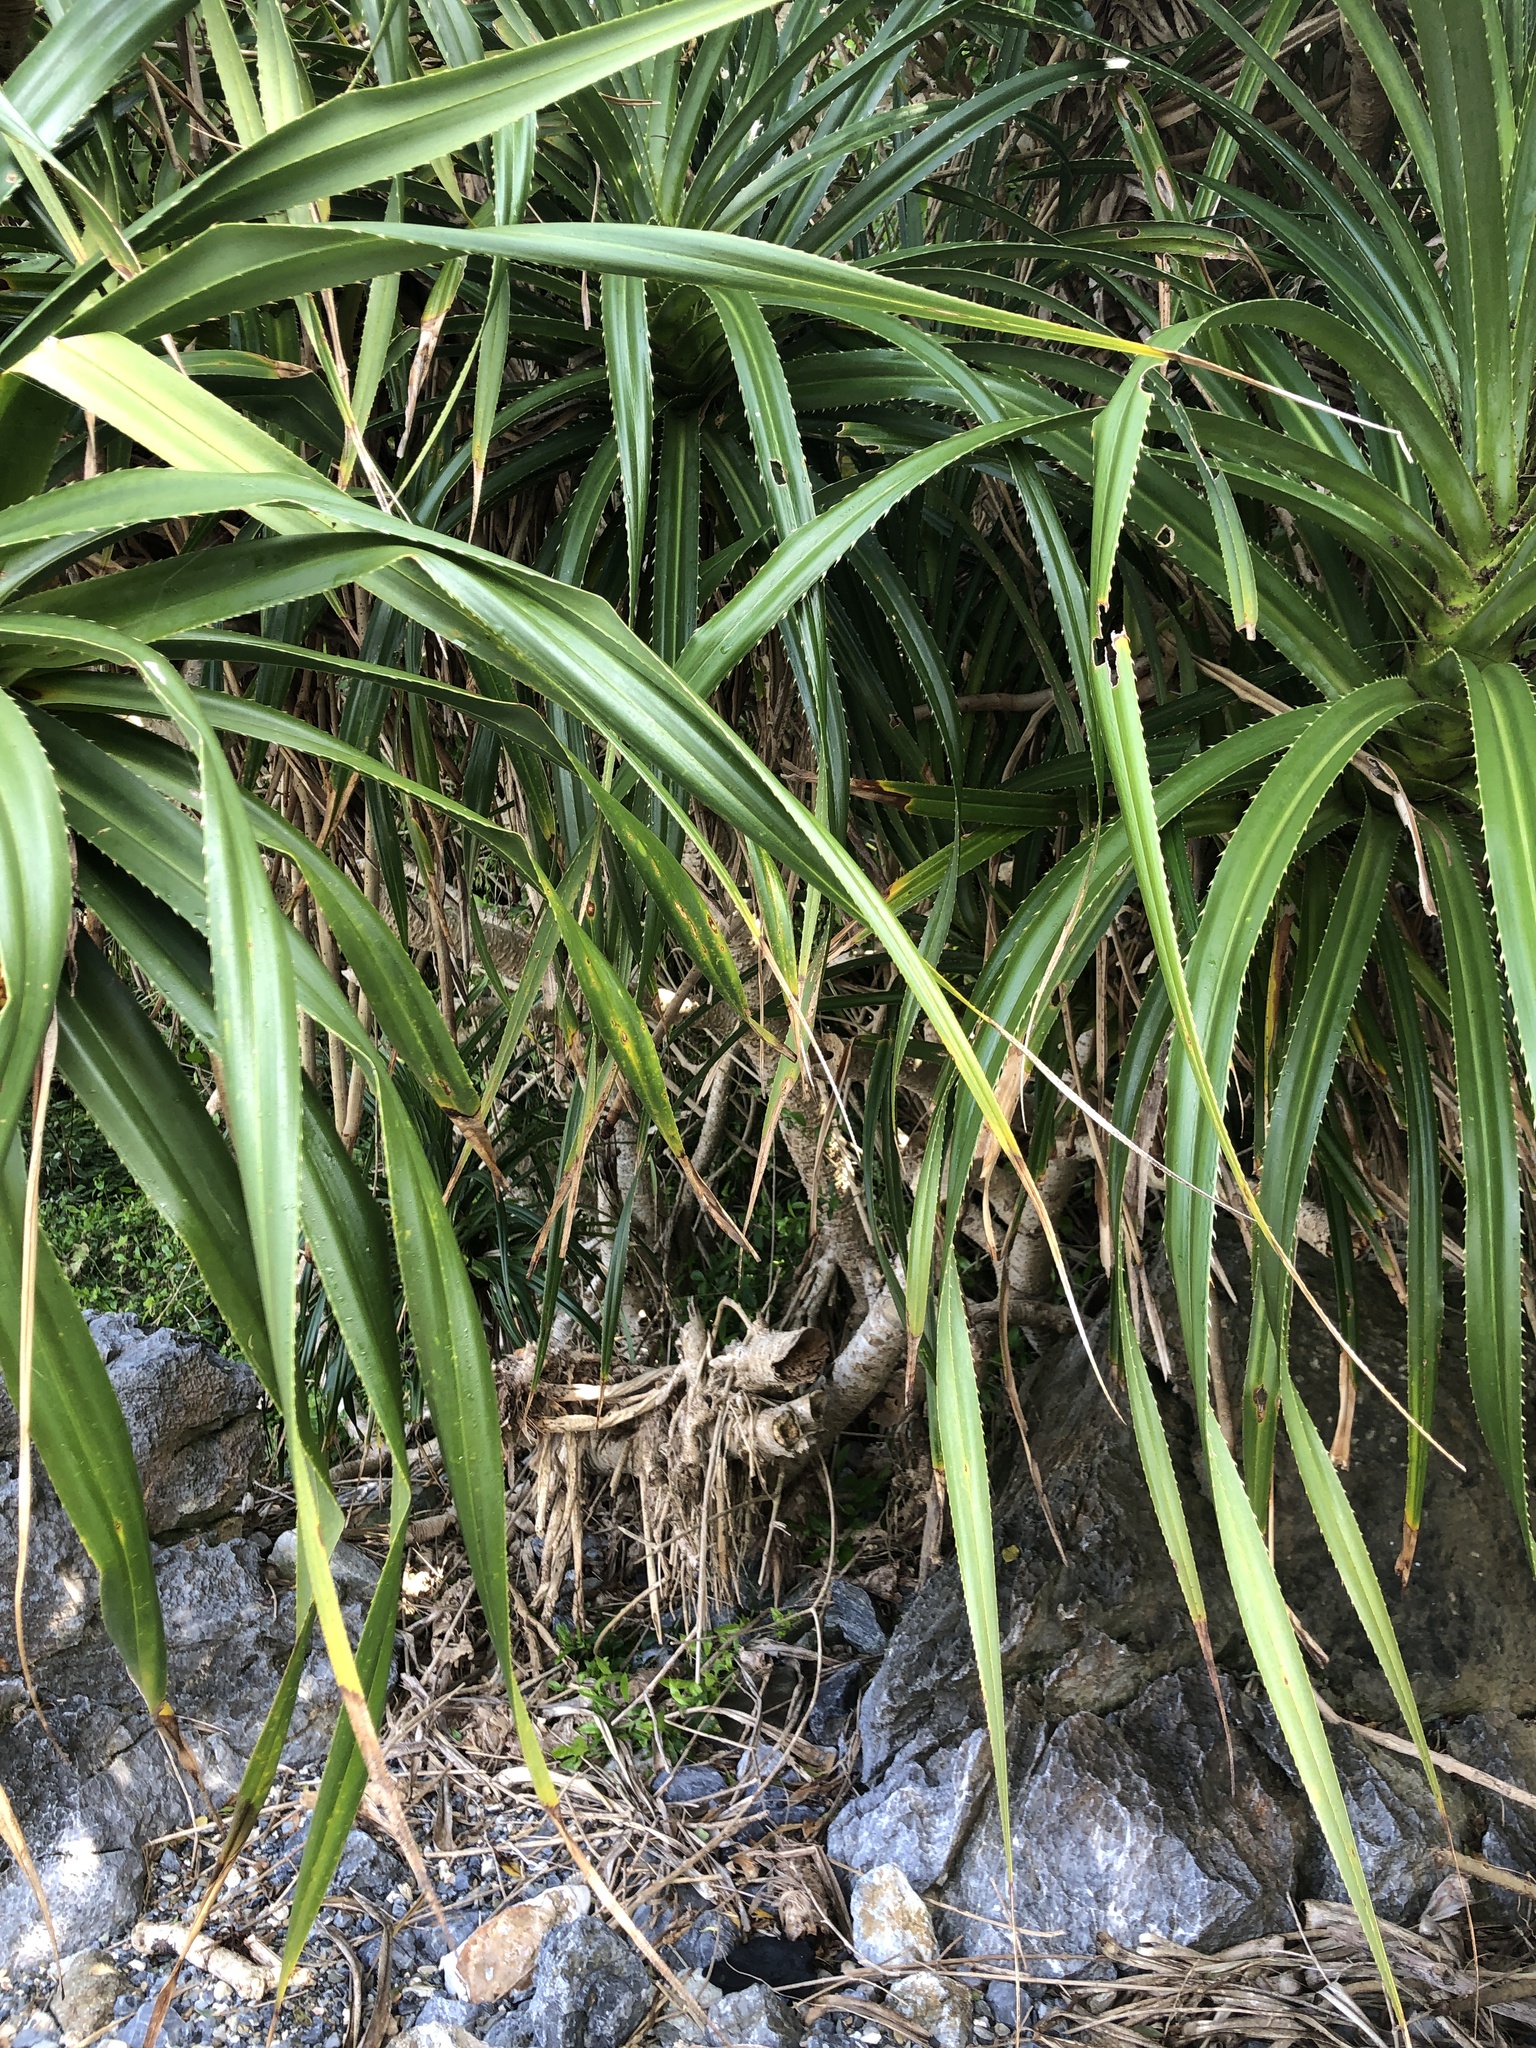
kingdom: Plantae
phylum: Tracheophyta
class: Liliopsida
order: Pandanales
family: Pandanaceae
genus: Pandanus
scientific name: Pandanus odorifer
